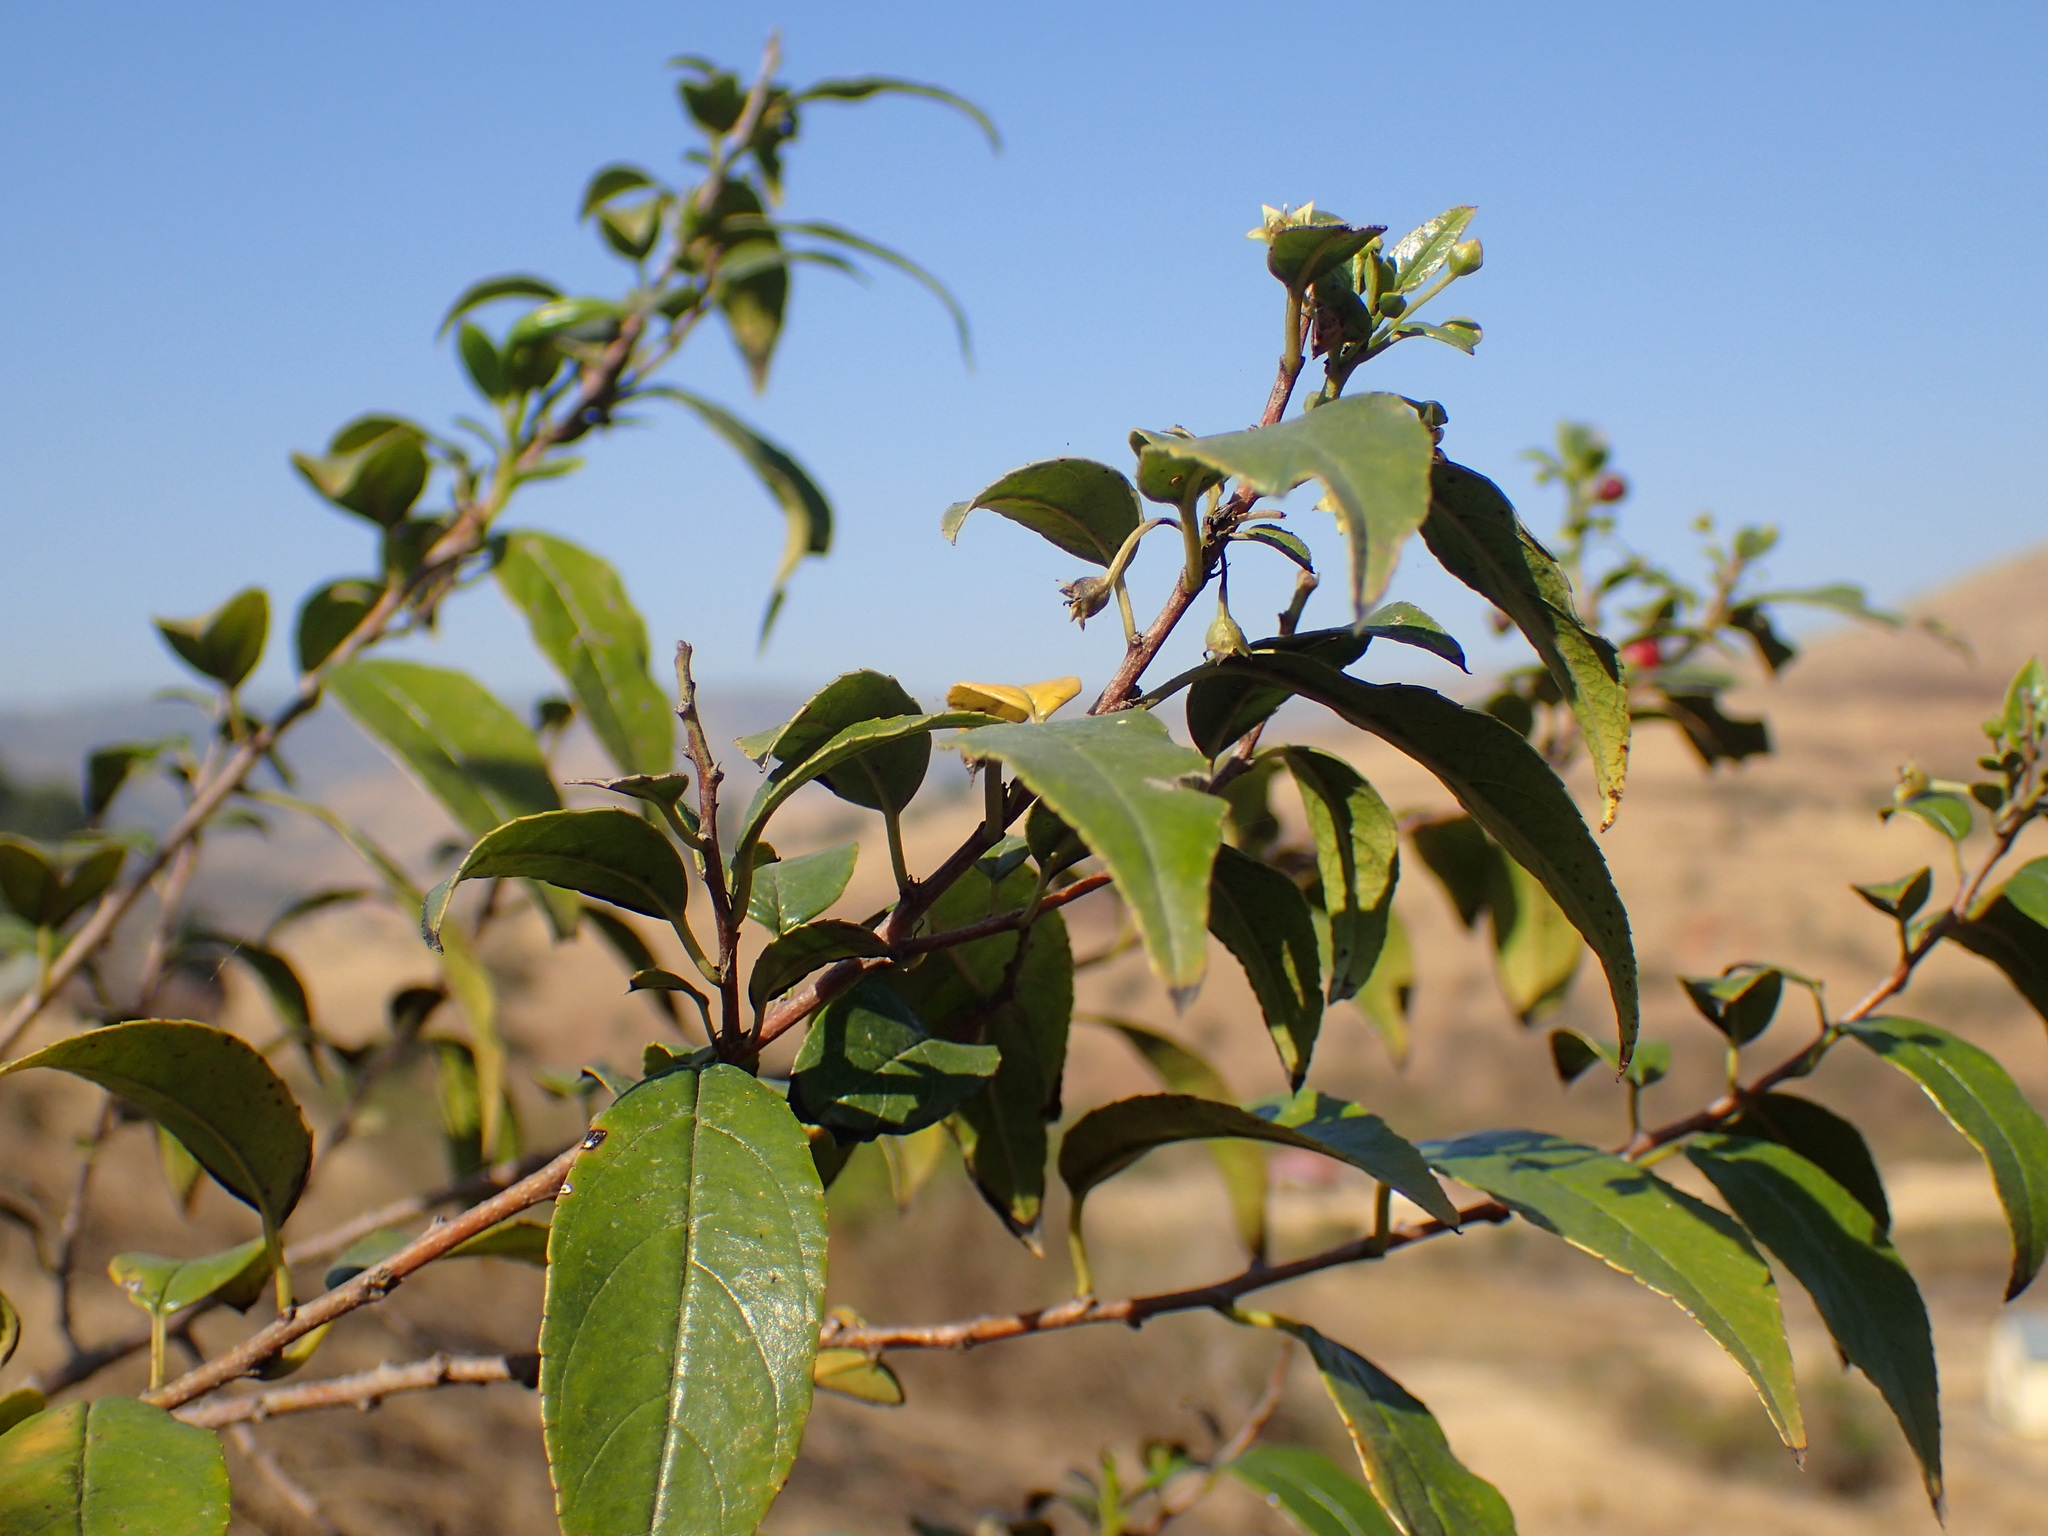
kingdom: Plantae
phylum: Tracheophyta
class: Magnoliopsida
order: Rosales
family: Rhamnaceae
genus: Rhamnus
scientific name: Rhamnus prinoides
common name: Dogwood
